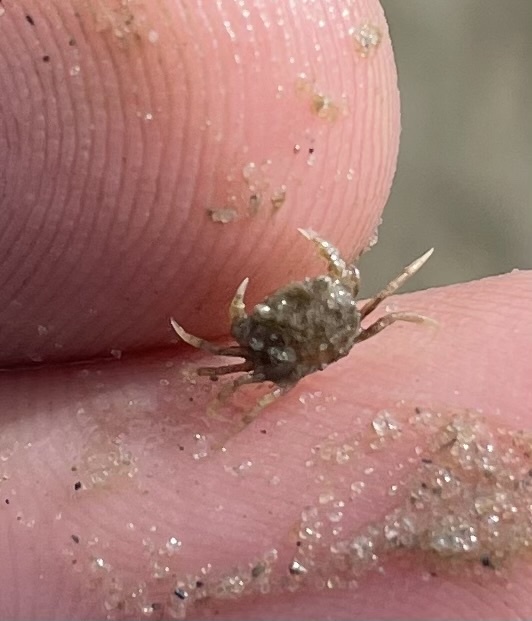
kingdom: Animalia
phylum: Arthropoda
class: Malacostraca
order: Decapoda
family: Carcinidae
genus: Carcinus
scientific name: Carcinus maenas
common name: European green crab
